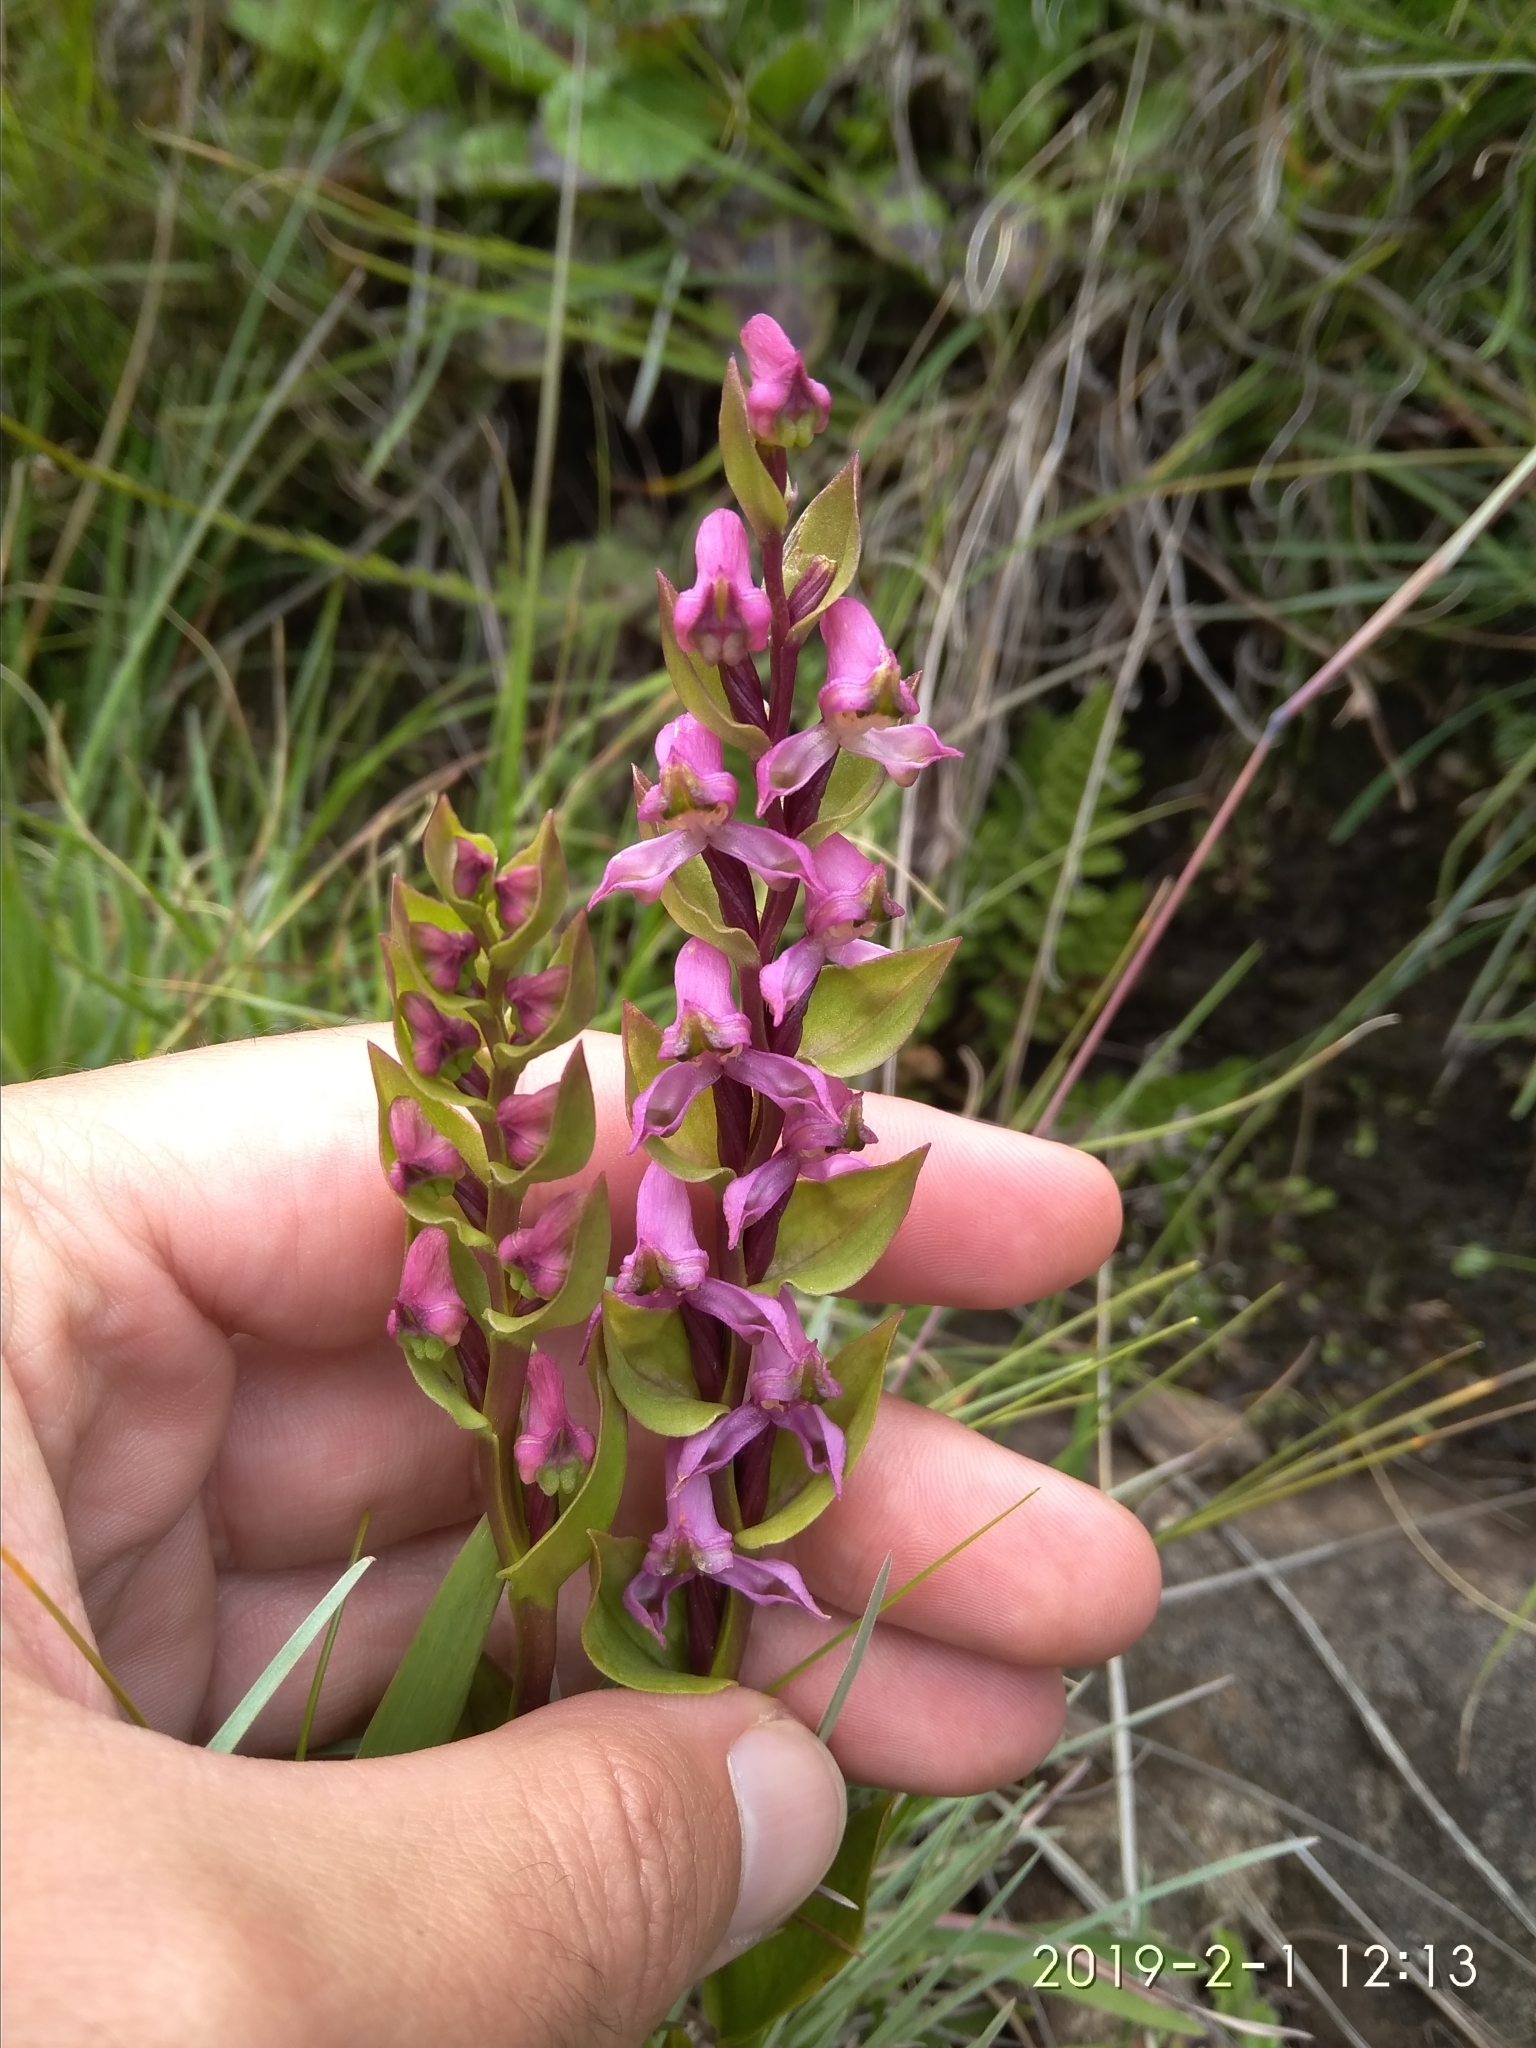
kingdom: Plantae
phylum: Tracheophyta
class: Liliopsida
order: Asparagales
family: Orchidaceae
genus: Disperis
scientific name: Disperis tysonii
